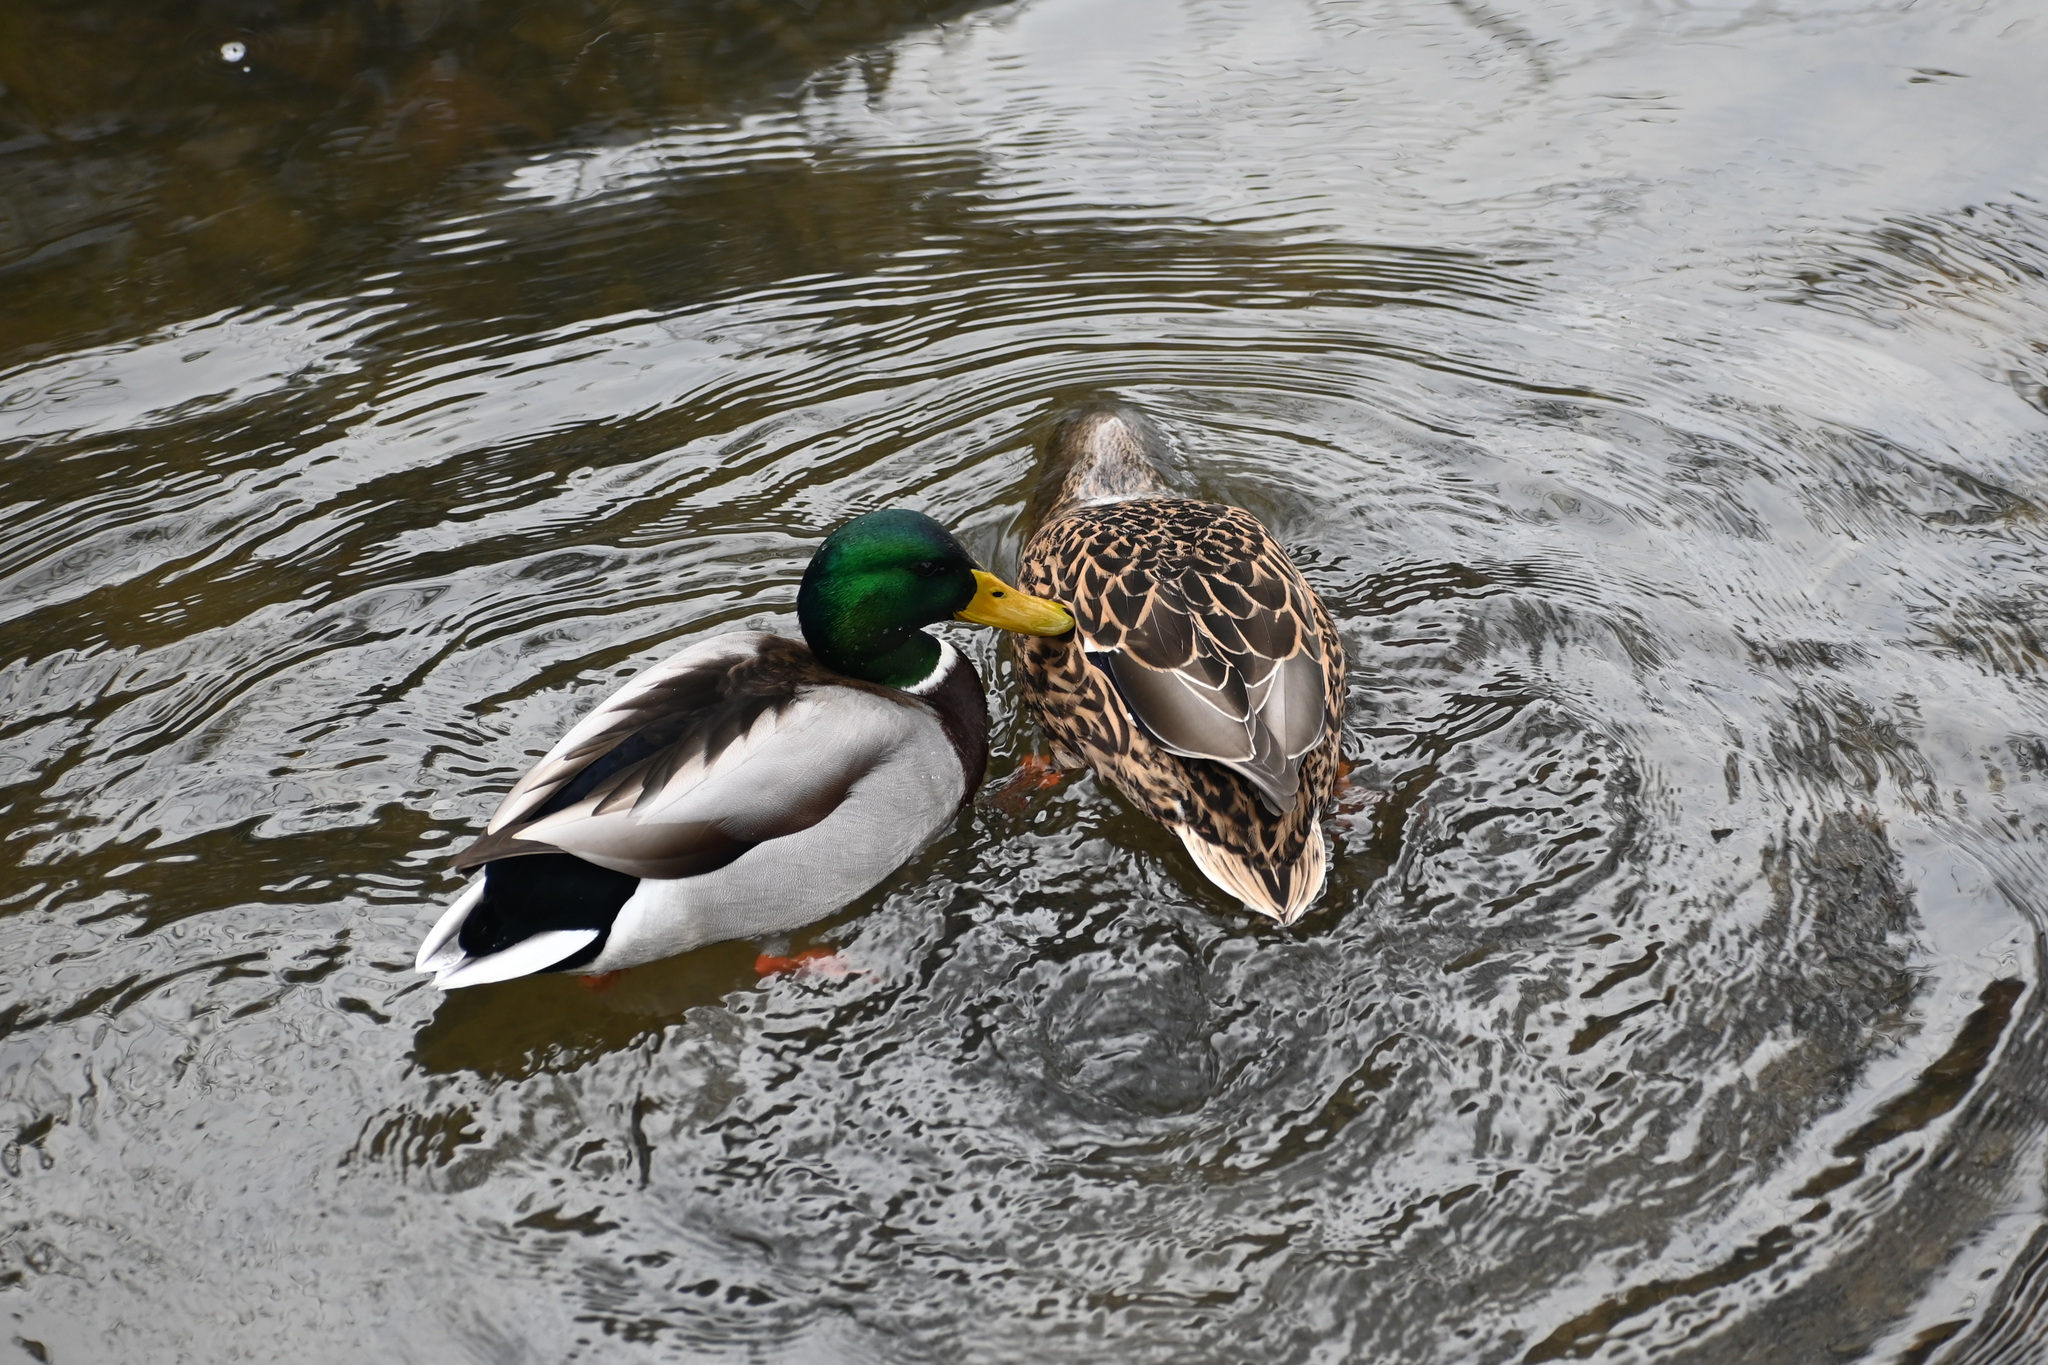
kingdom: Animalia
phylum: Chordata
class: Aves
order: Anseriformes
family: Anatidae
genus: Anas
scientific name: Anas platyrhynchos
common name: Mallard
